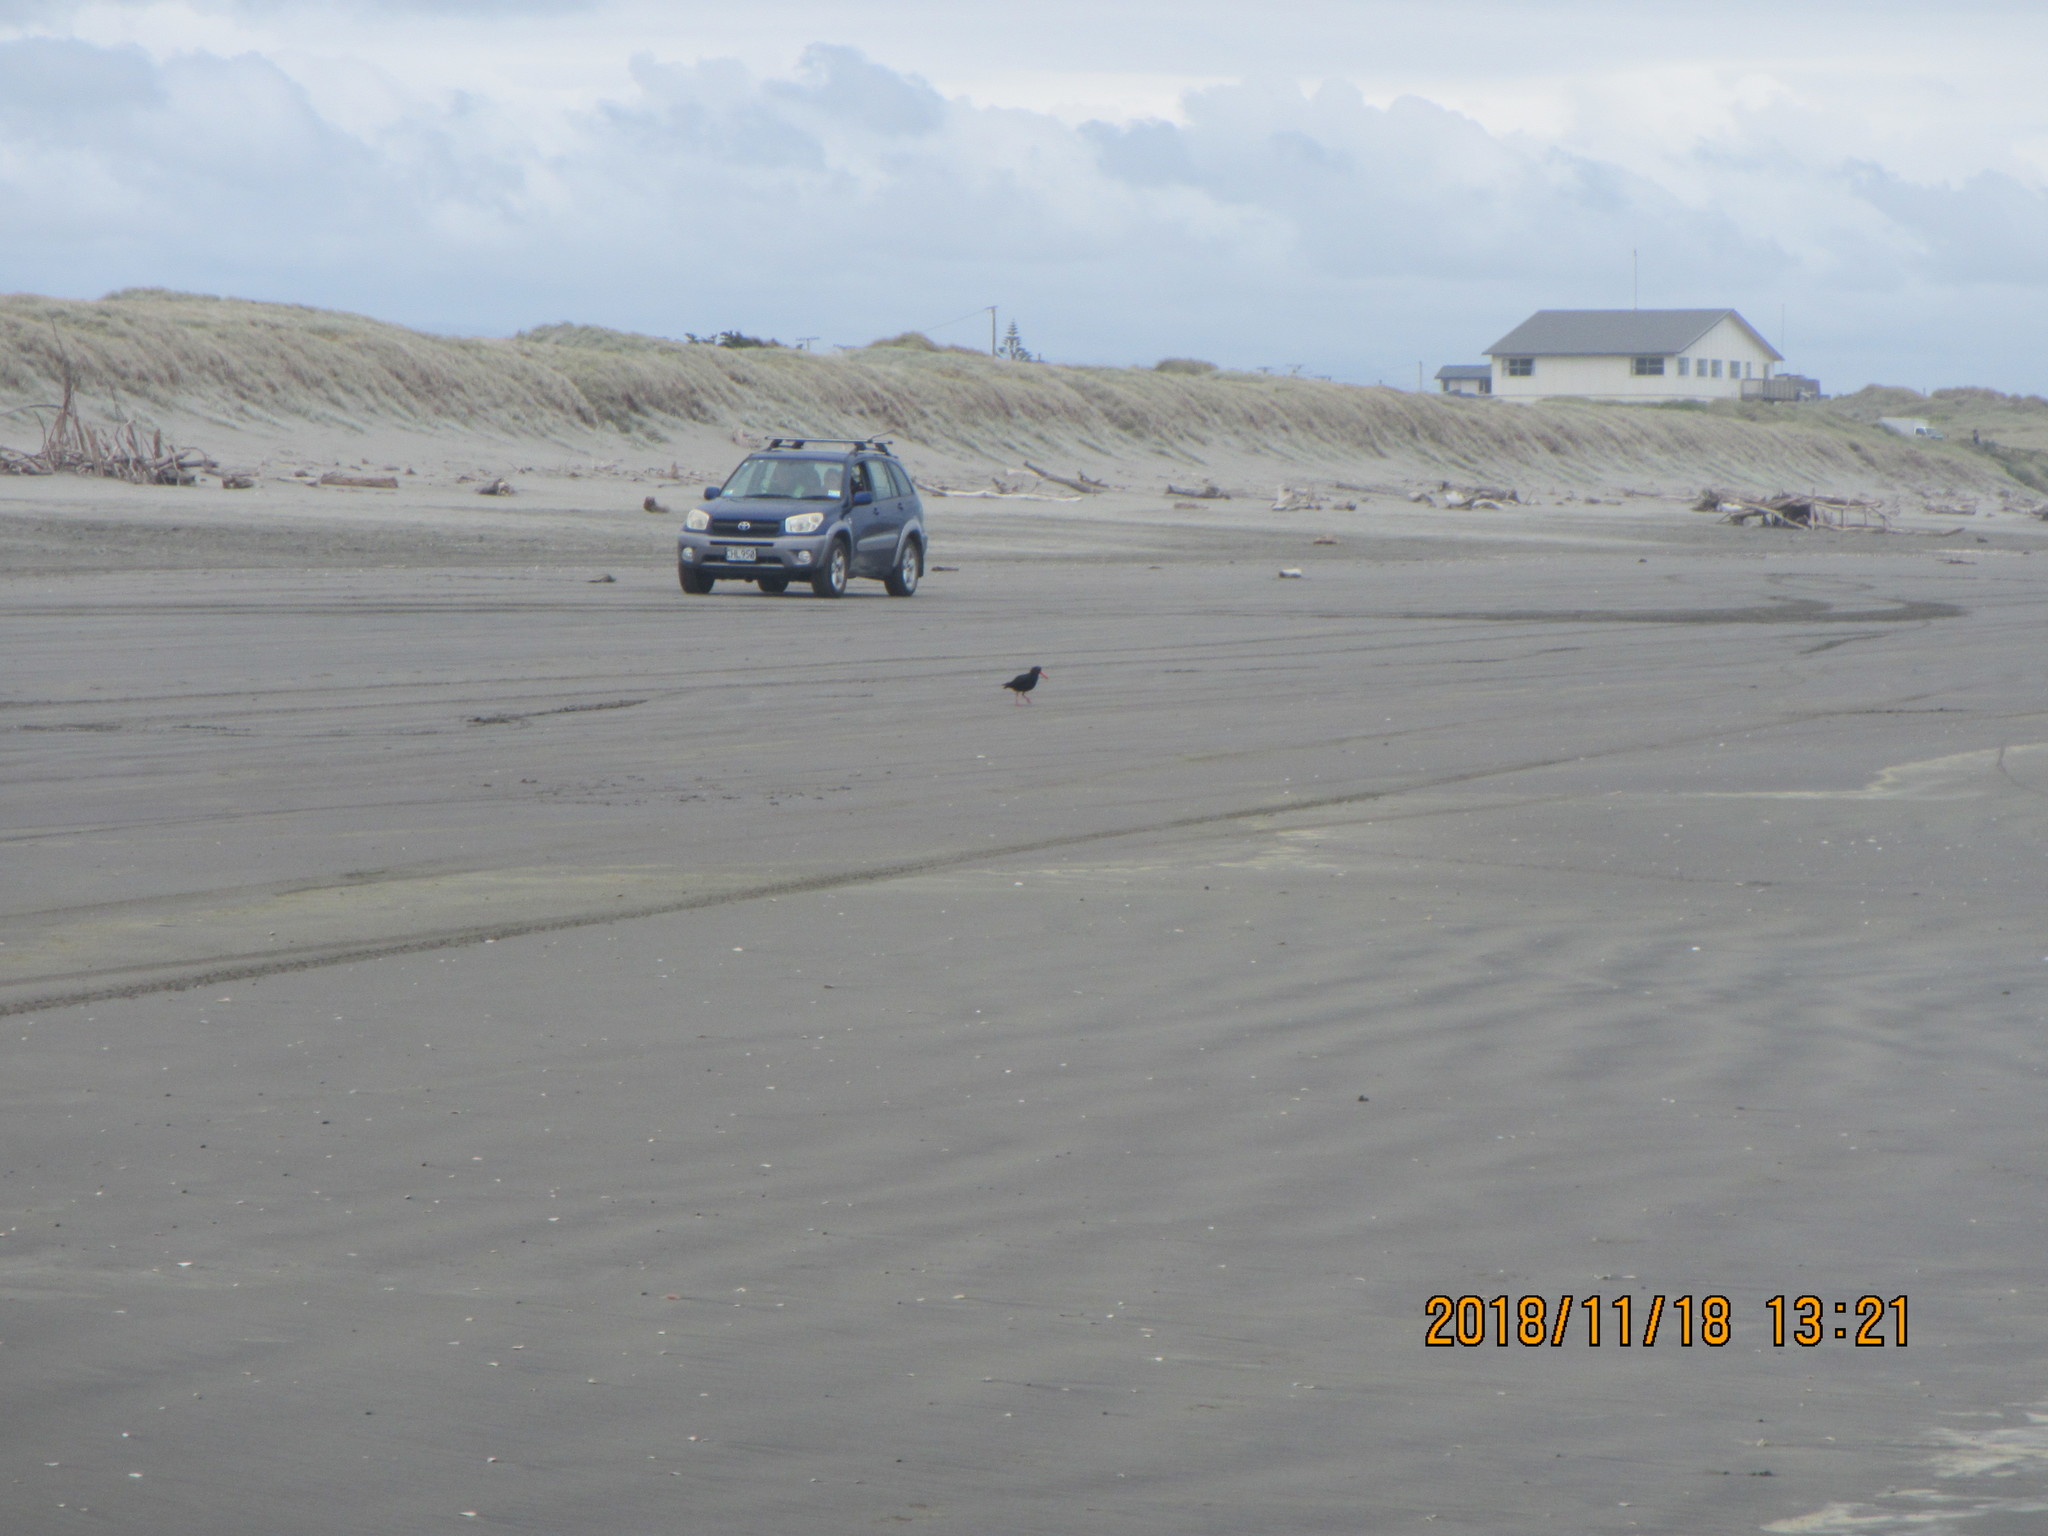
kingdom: Animalia
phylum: Chordata
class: Aves
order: Charadriiformes
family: Haematopodidae
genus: Haematopus
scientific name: Haematopus unicolor
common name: Variable oystercatcher
